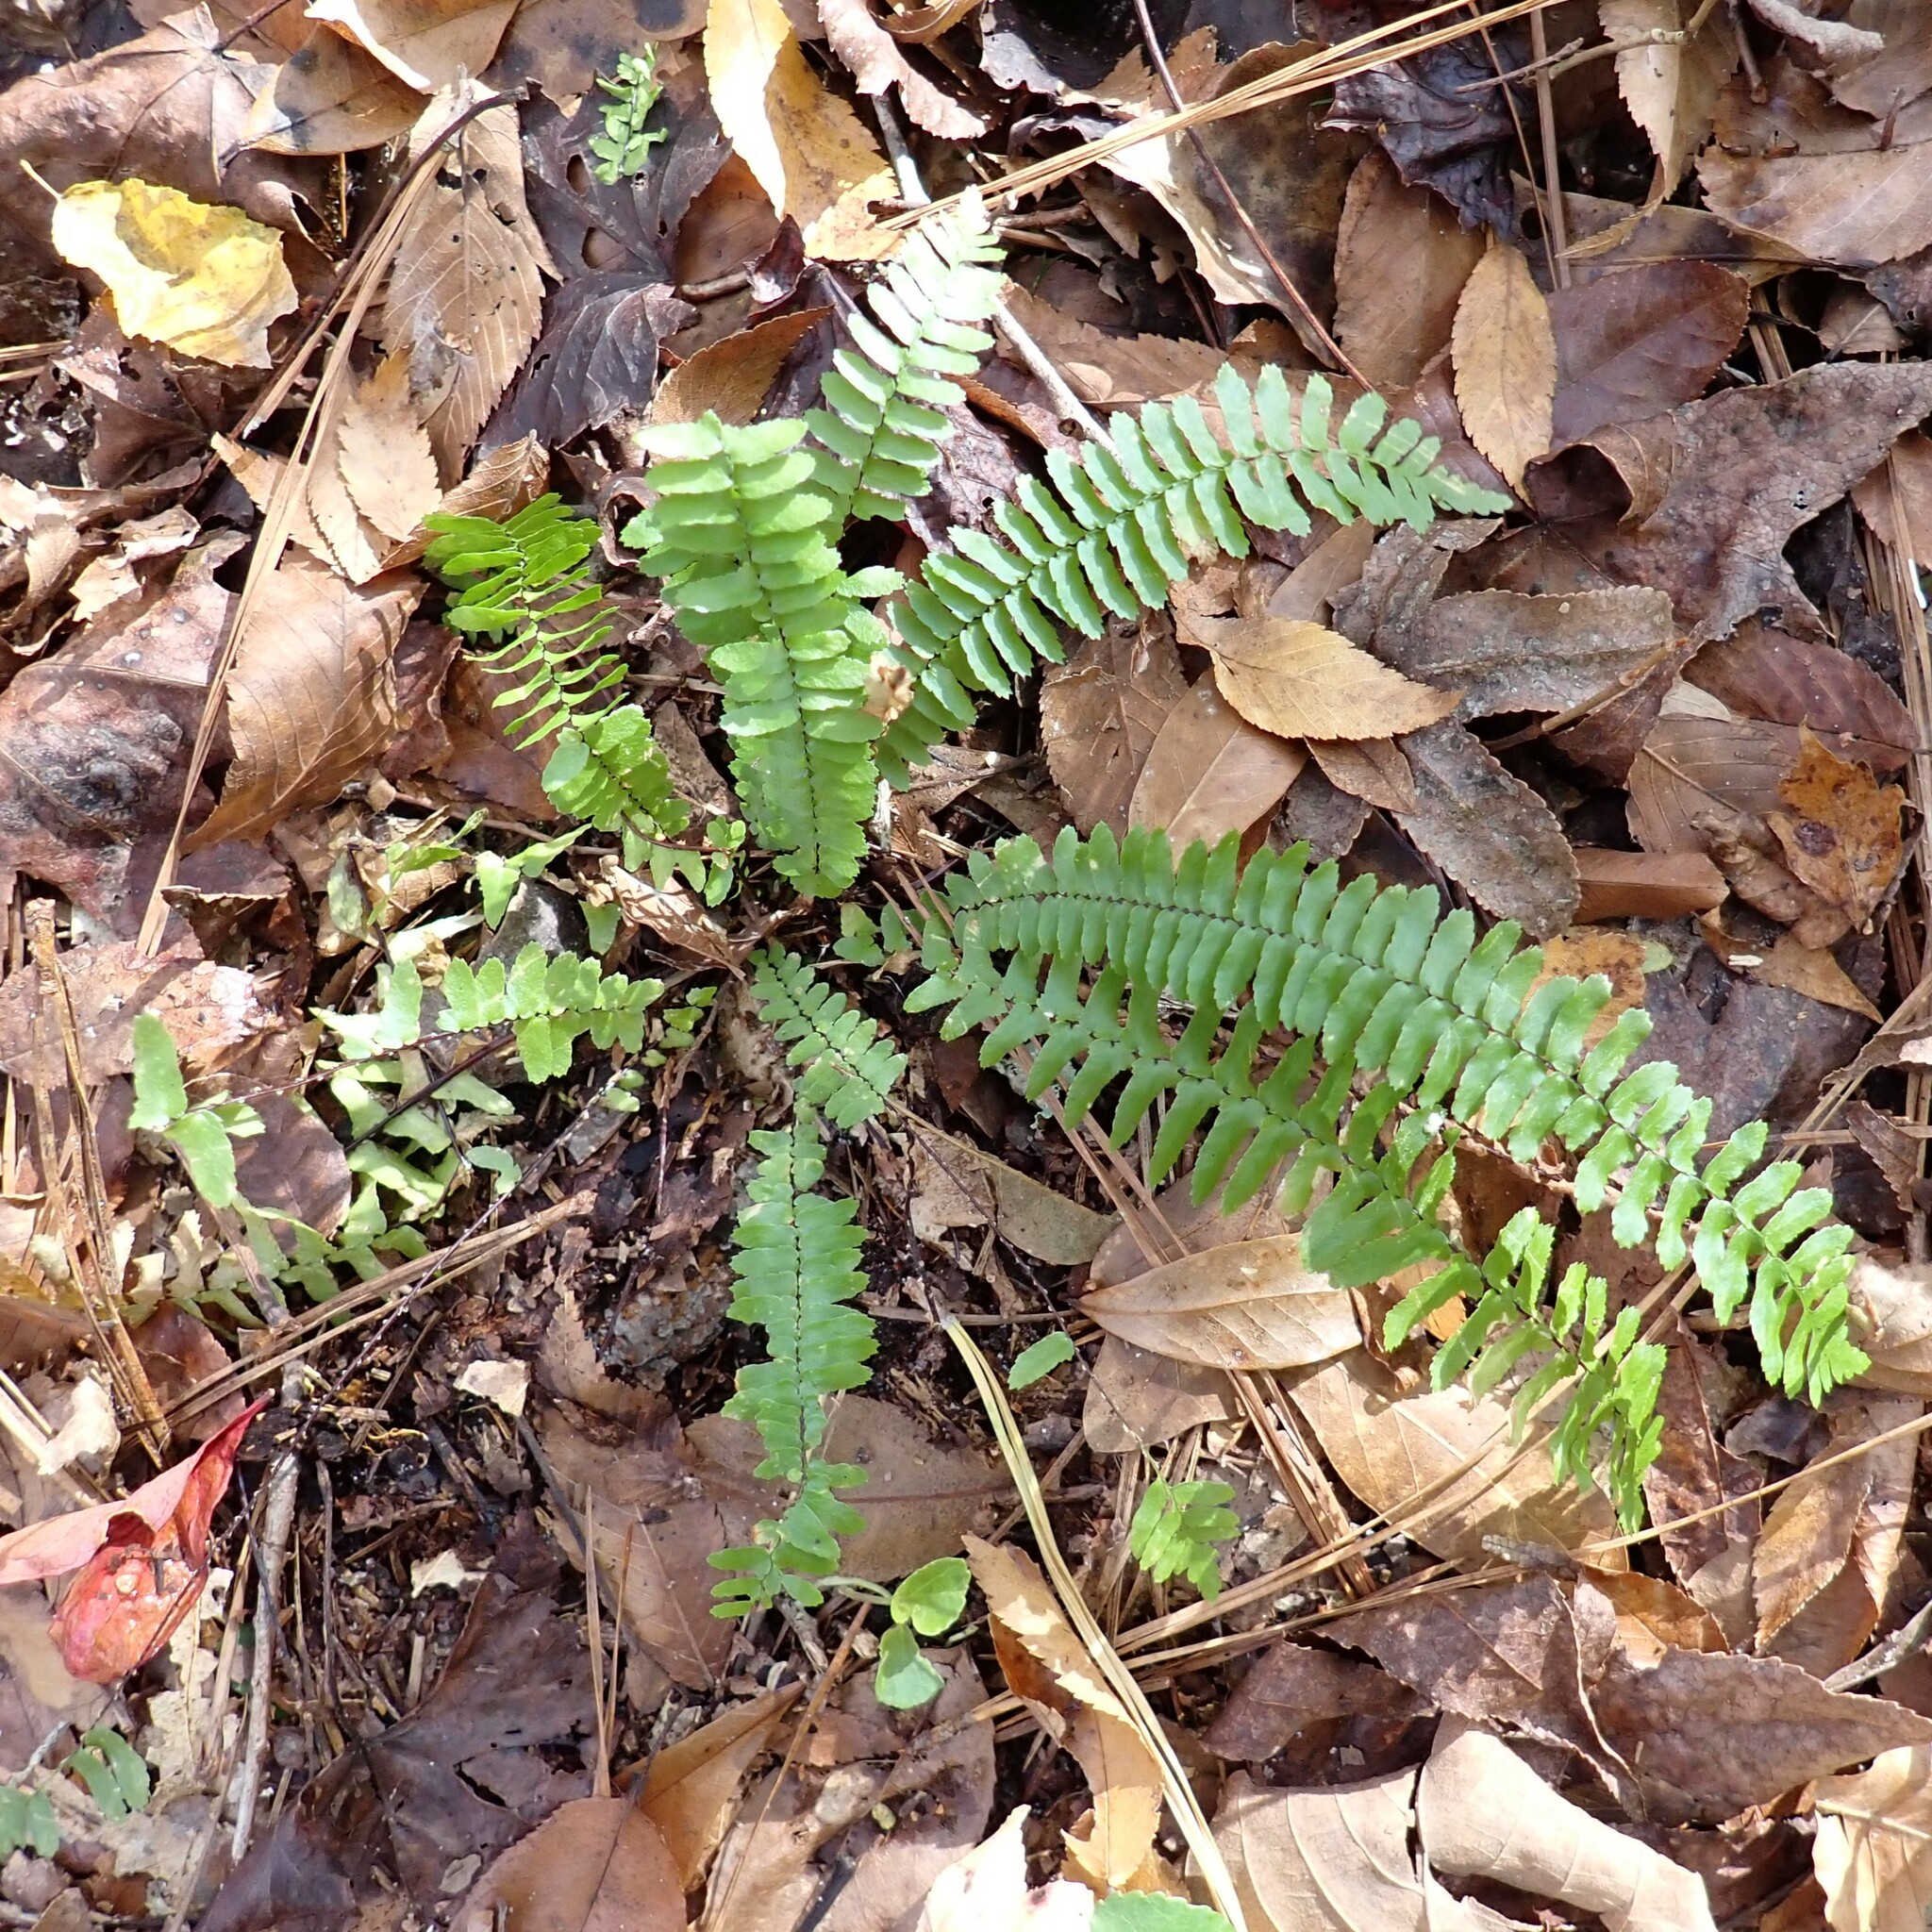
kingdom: Plantae
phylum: Tracheophyta
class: Polypodiopsida
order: Polypodiales
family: Aspleniaceae
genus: Asplenium
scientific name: Asplenium platyneuron
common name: Ebony spleenwort
